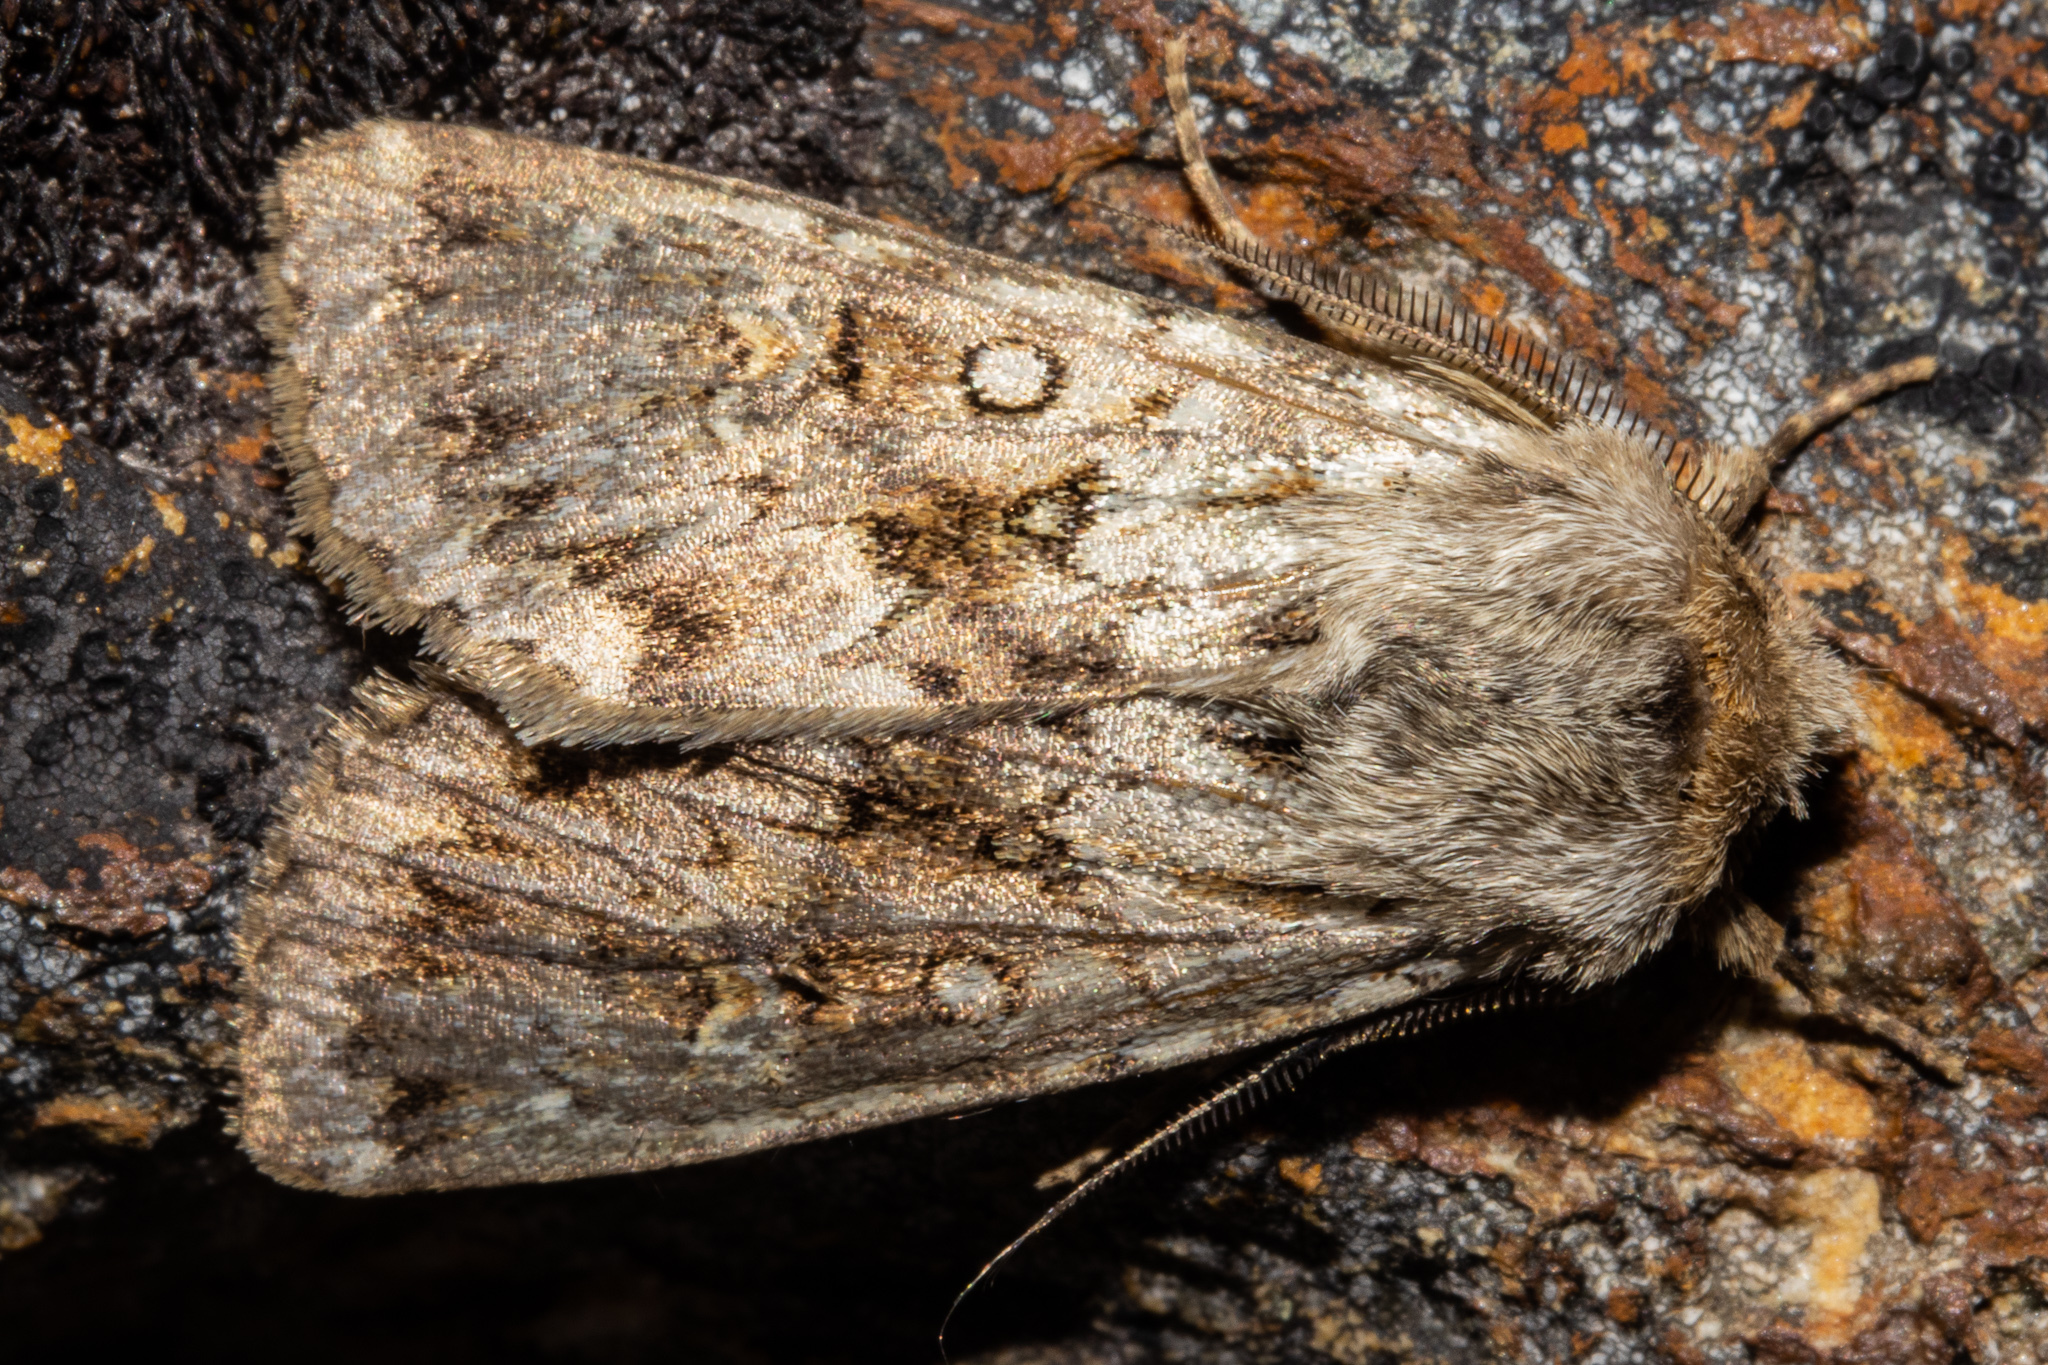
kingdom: Animalia
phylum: Arthropoda
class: Insecta
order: Lepidoptera
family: Noctuidae
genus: Ichneutica
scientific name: Ichneutica
